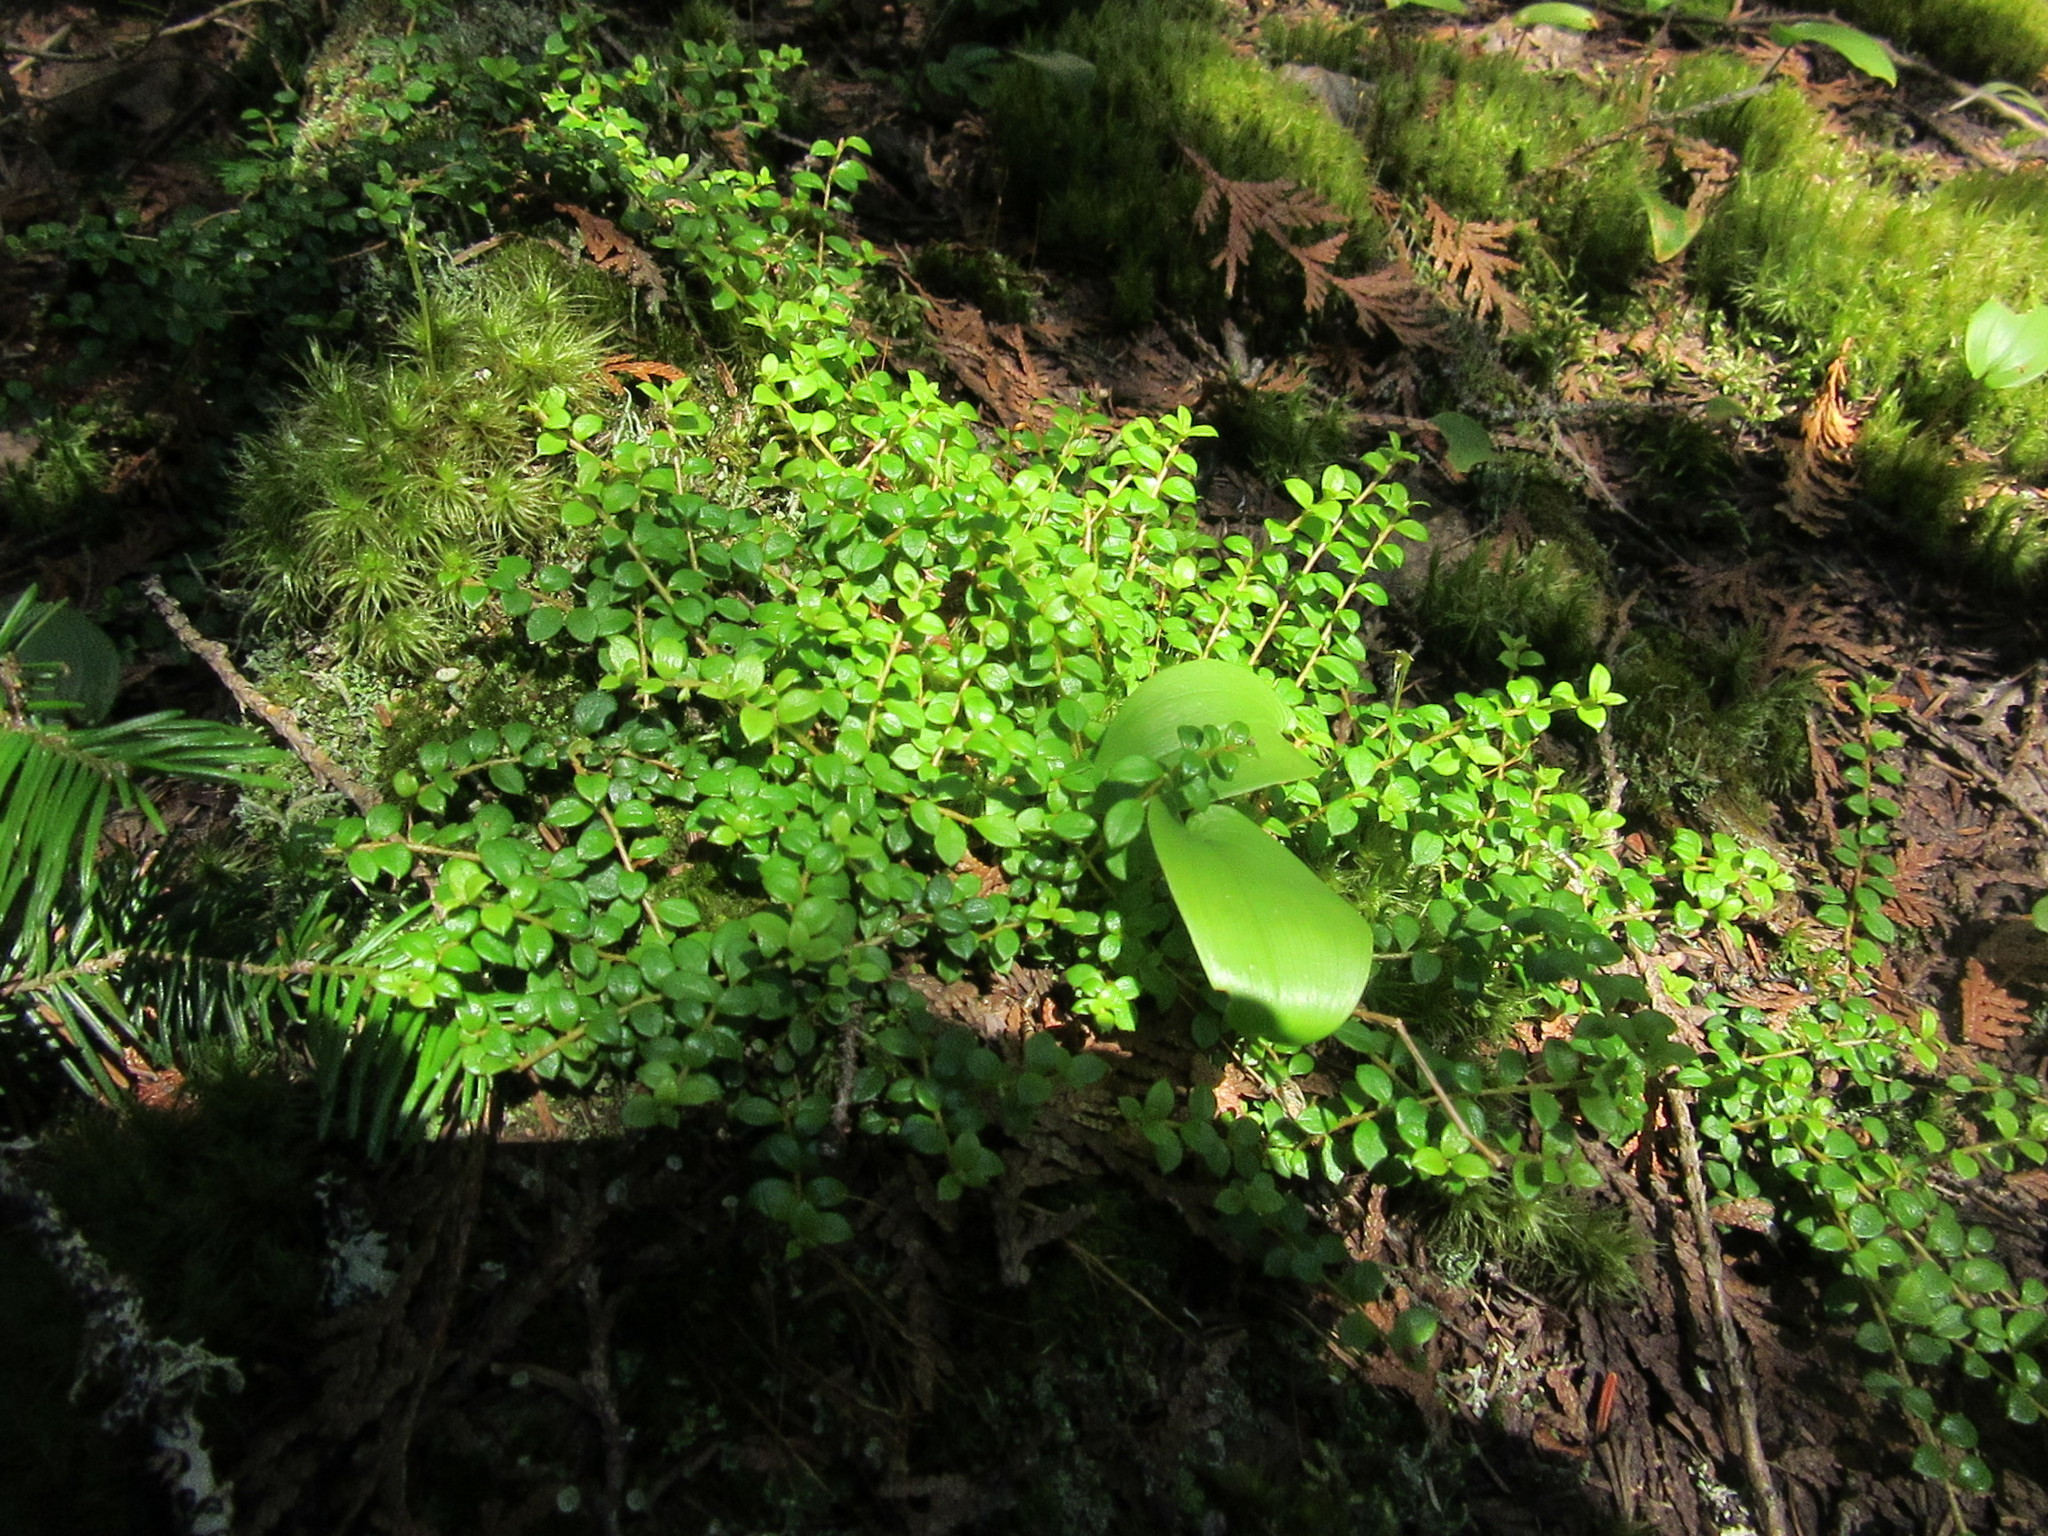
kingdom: Plantae
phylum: Tracheophyta
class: Magnoliopsida
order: Ericales
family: Ericaceae
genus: Gaultheria
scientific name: Gaultheria hispidula
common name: Cancer wintergreen
